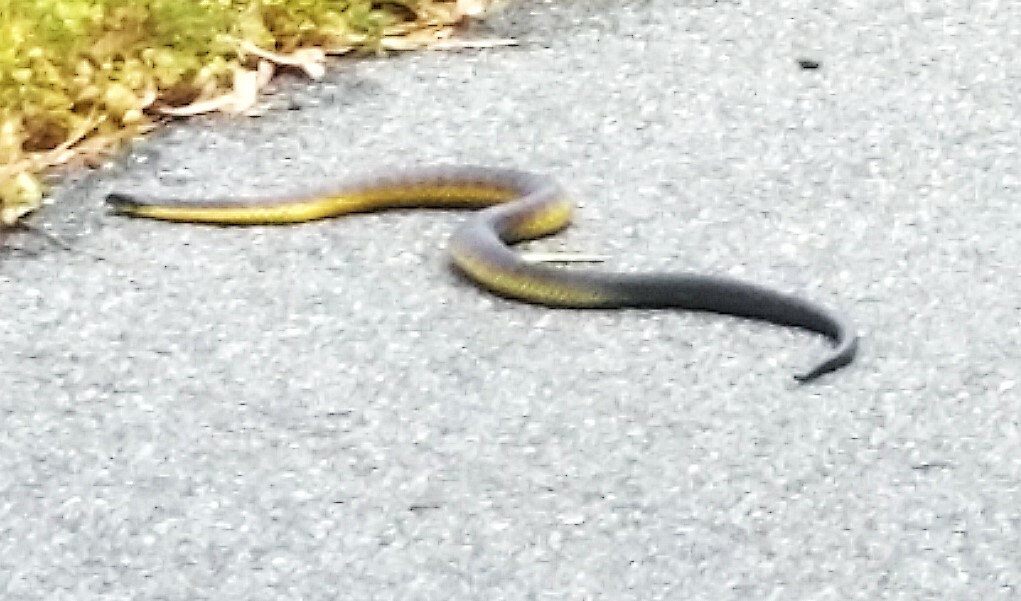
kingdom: Animalia
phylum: Chordata
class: Squamata
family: Elapidae
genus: Notechis
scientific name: Notechis scutatus
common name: Mainland tiger snake
